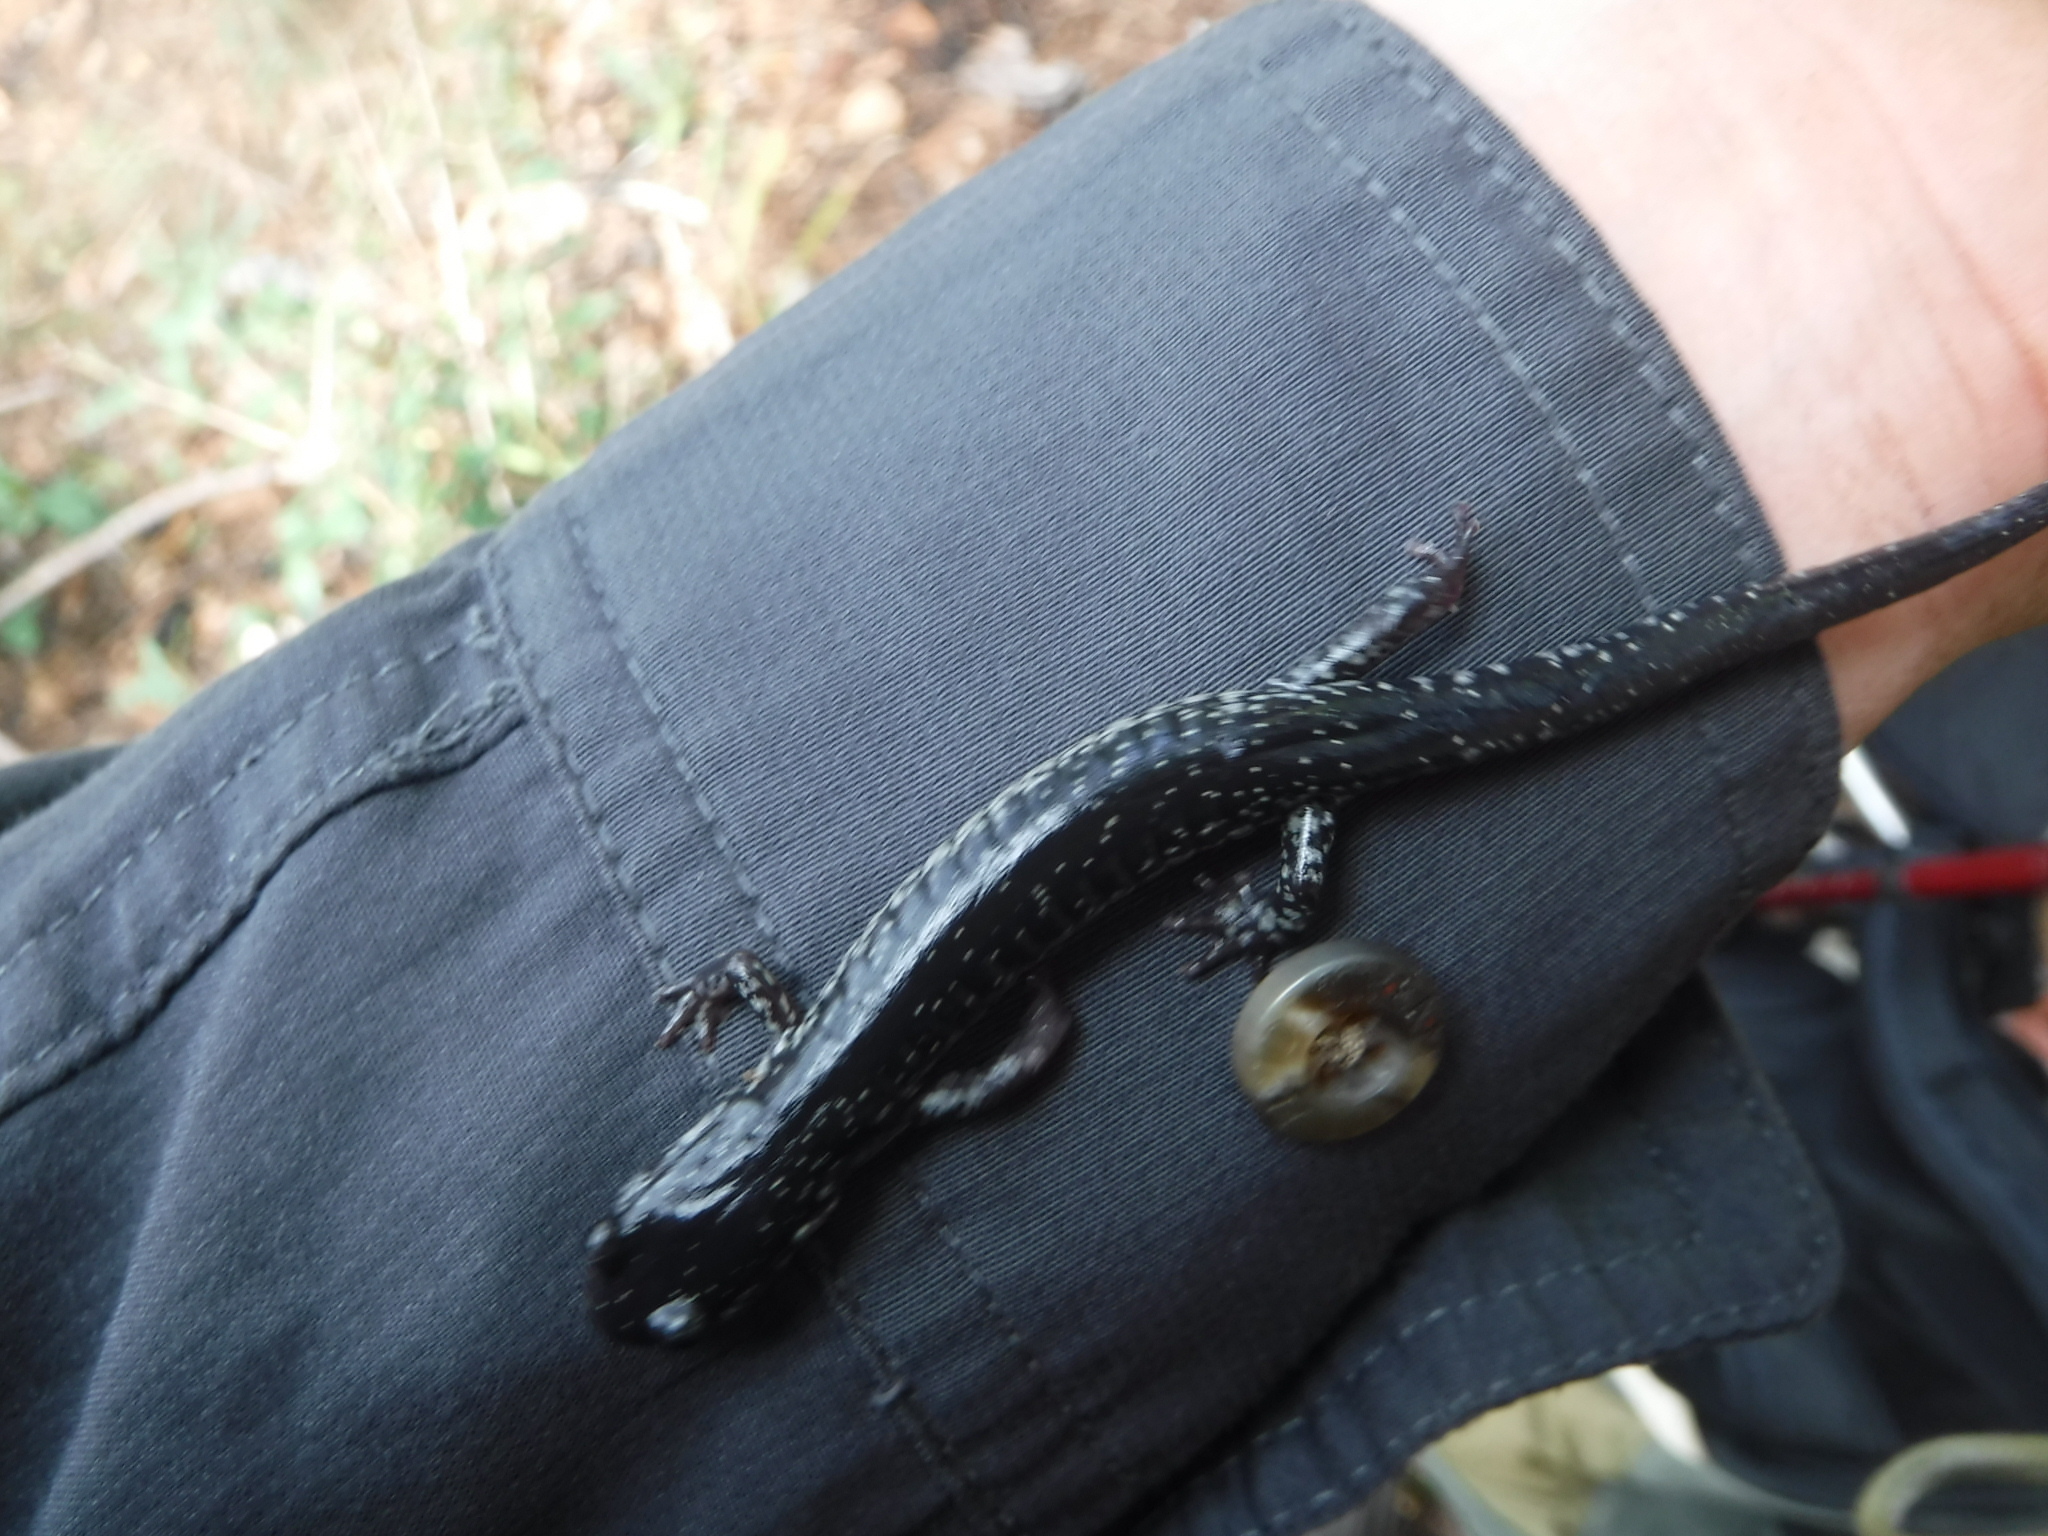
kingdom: Animalia
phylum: Chordata
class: Amphibia
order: Caudata
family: Plethodontidae
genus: Plethodon
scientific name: Plethodon cylindraceus
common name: White-spotted slimy salamander
